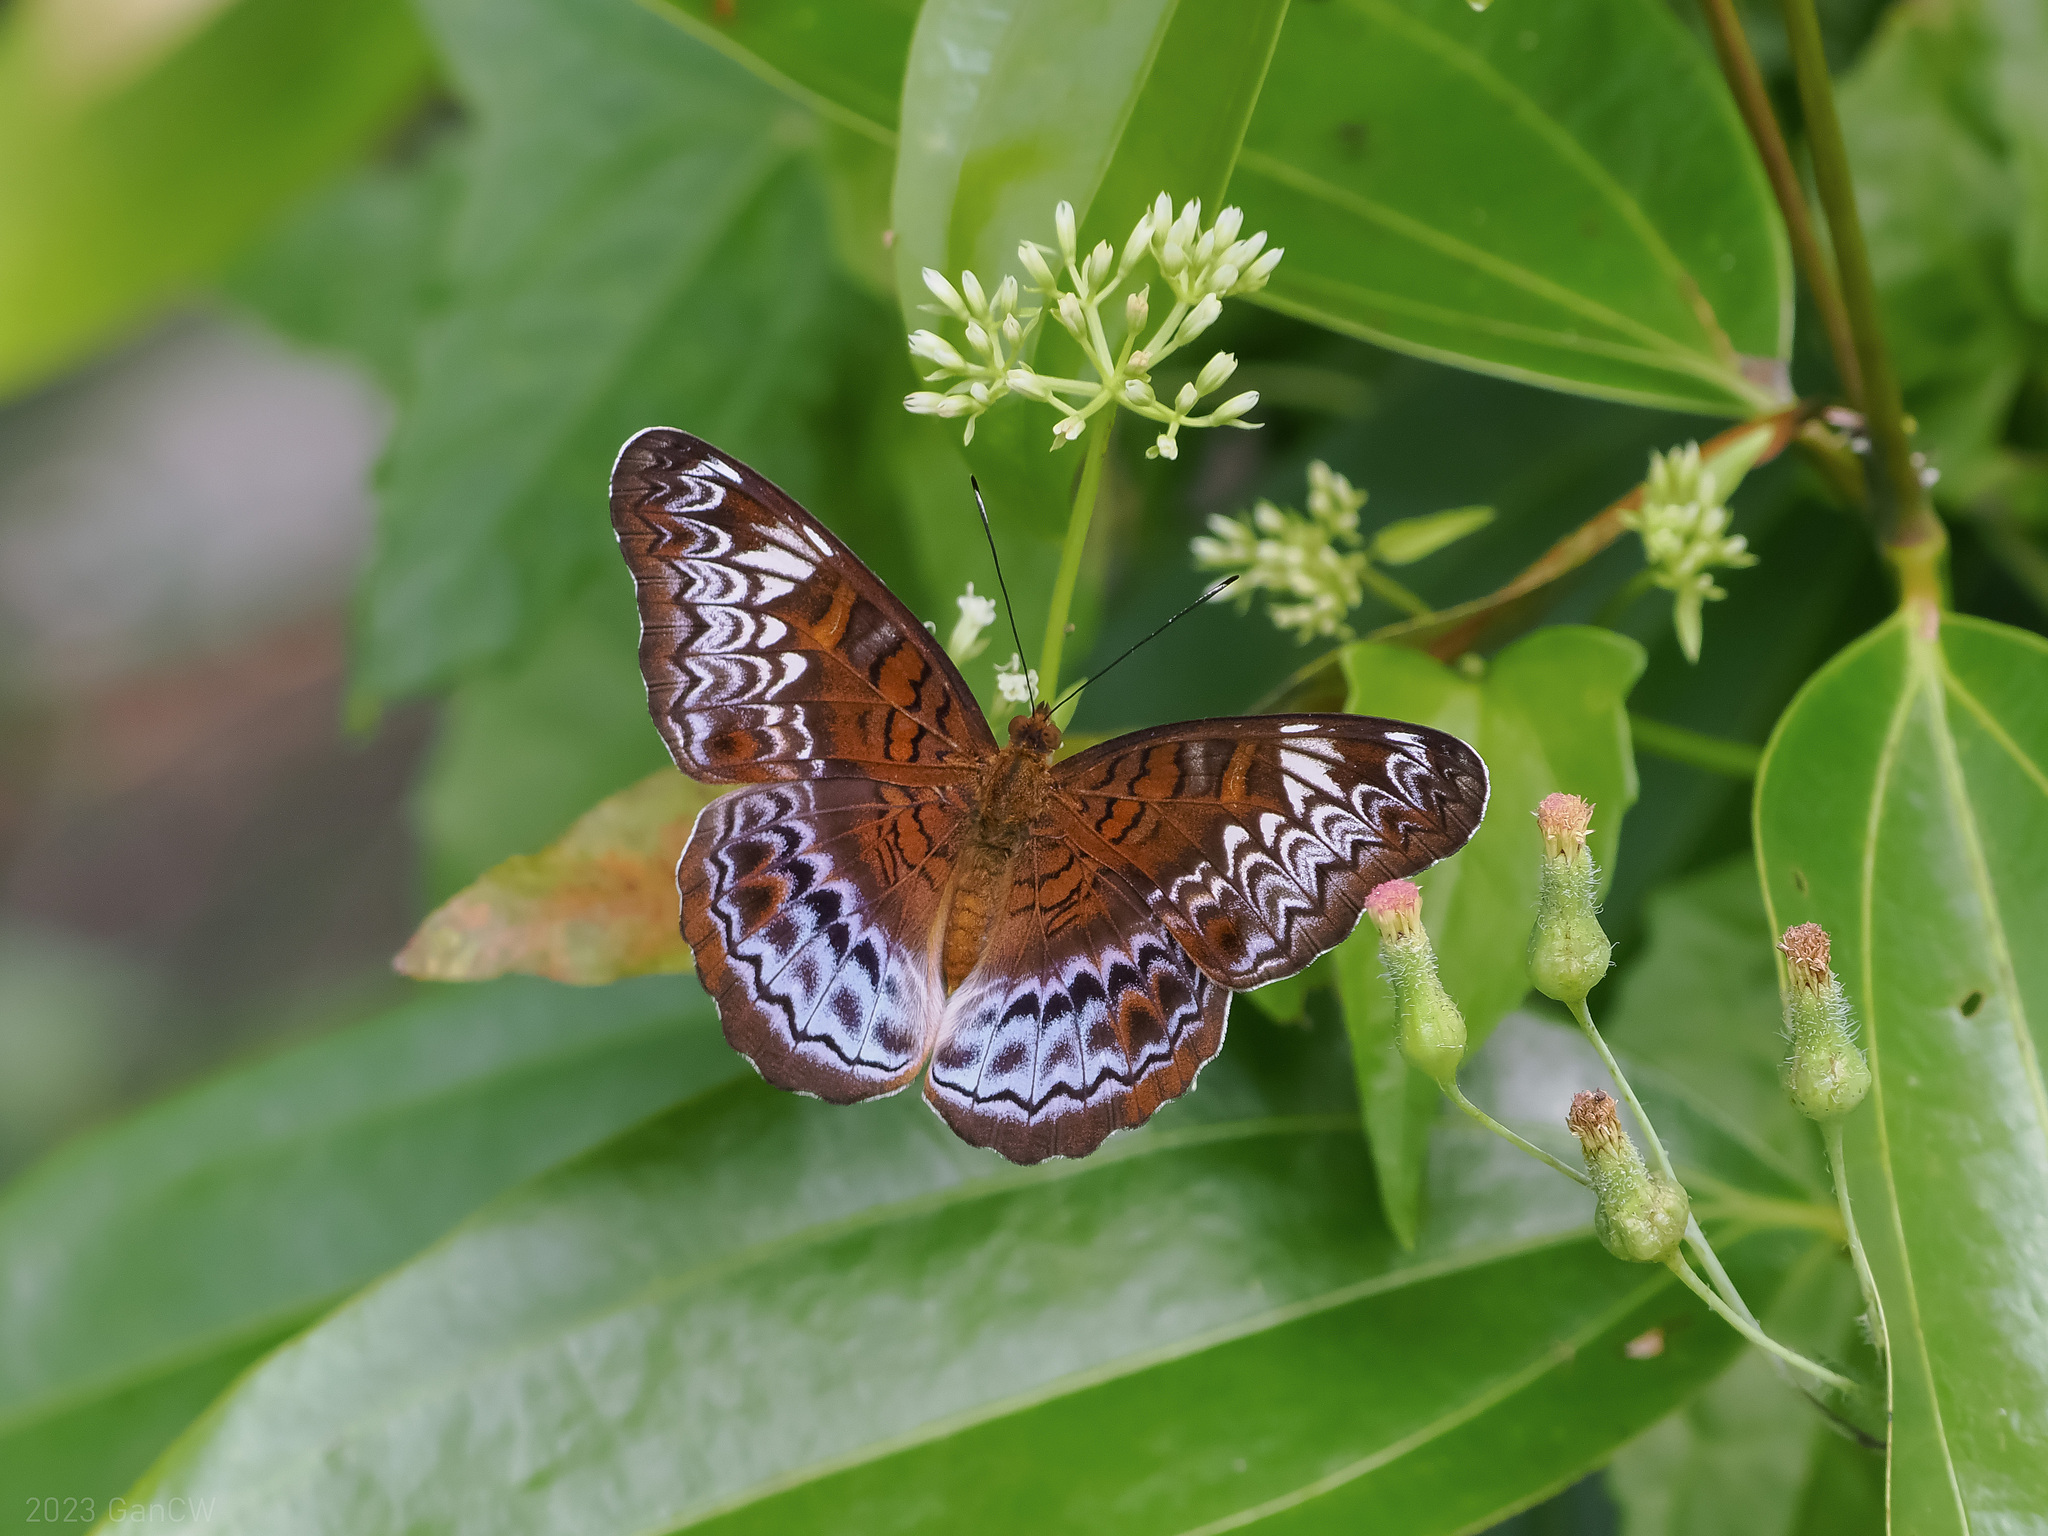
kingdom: Animalia
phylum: Arthropoda
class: Insecta
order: Lepidoptera
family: Nymphalidae
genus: Lebadea
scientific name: Lebadea martha
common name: Knight
